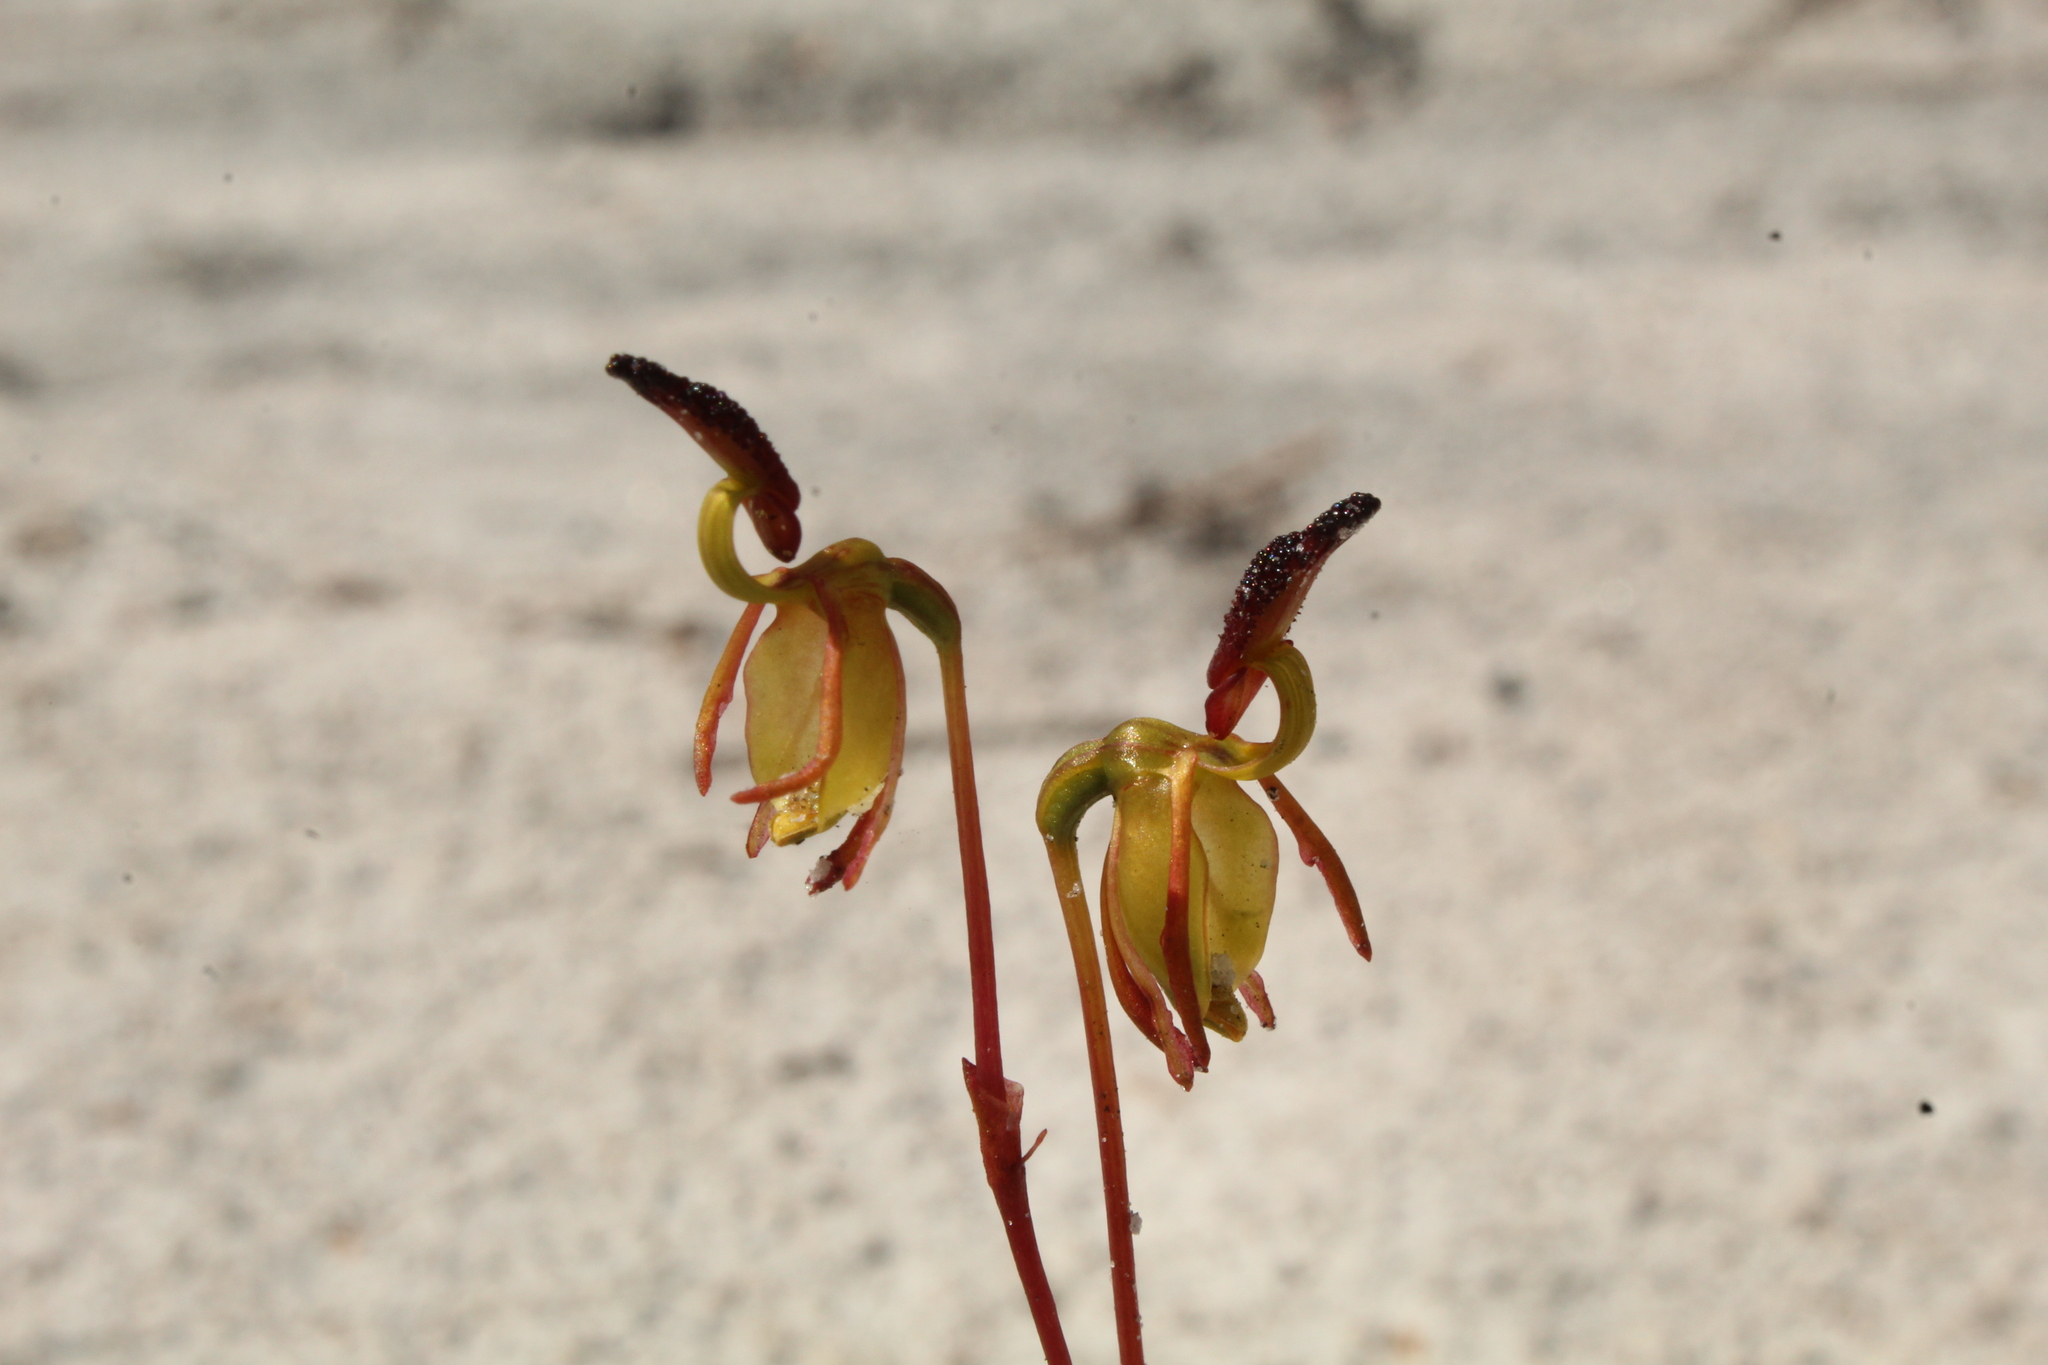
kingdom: Plantae
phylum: Tracheophyta
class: Liliopsida
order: Asparagales
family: Orchidaceae
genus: Caleana
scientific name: Caleana nigrita
